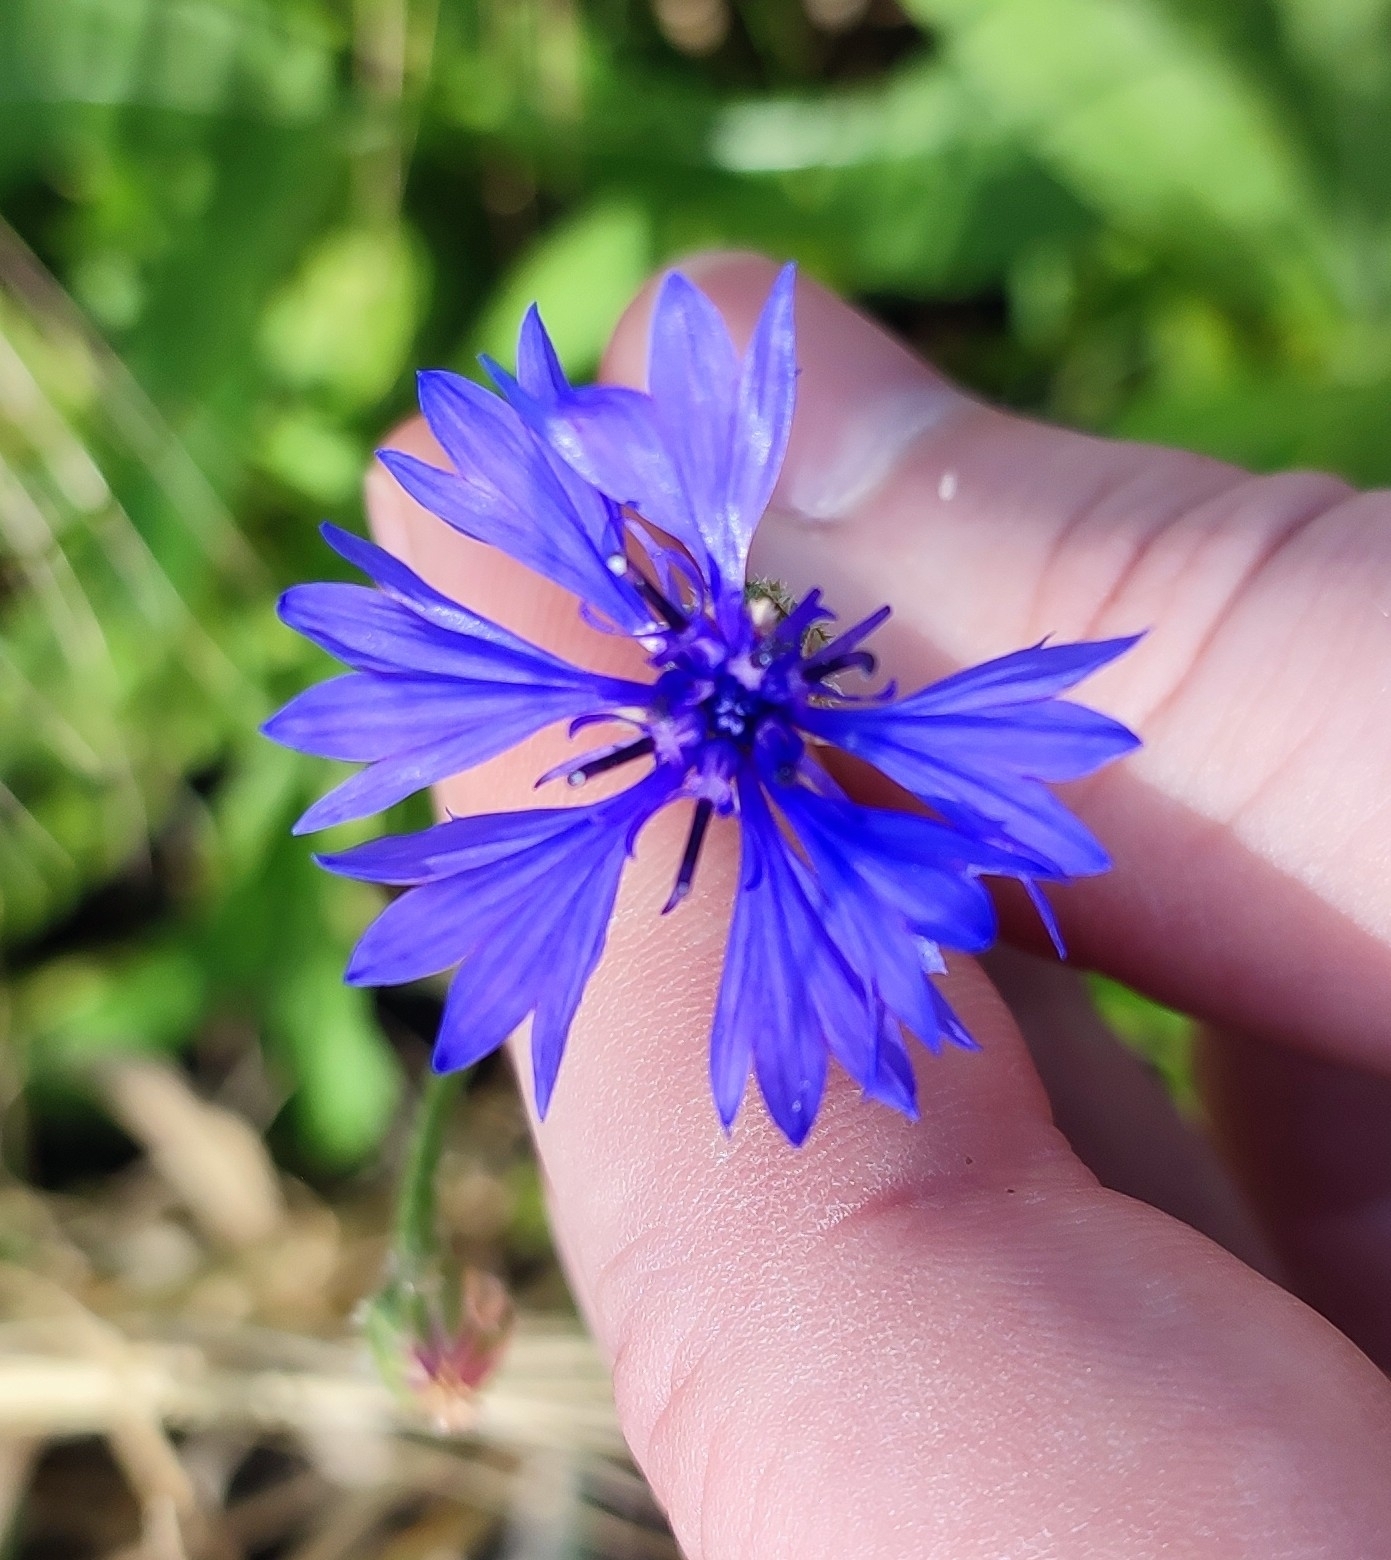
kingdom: Plantae
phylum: Tracheophyta
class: Magnoliopsida
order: Asterales
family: Asteraceae
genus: Centaurea
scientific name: Centaurea cyanus
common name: Cornflower
